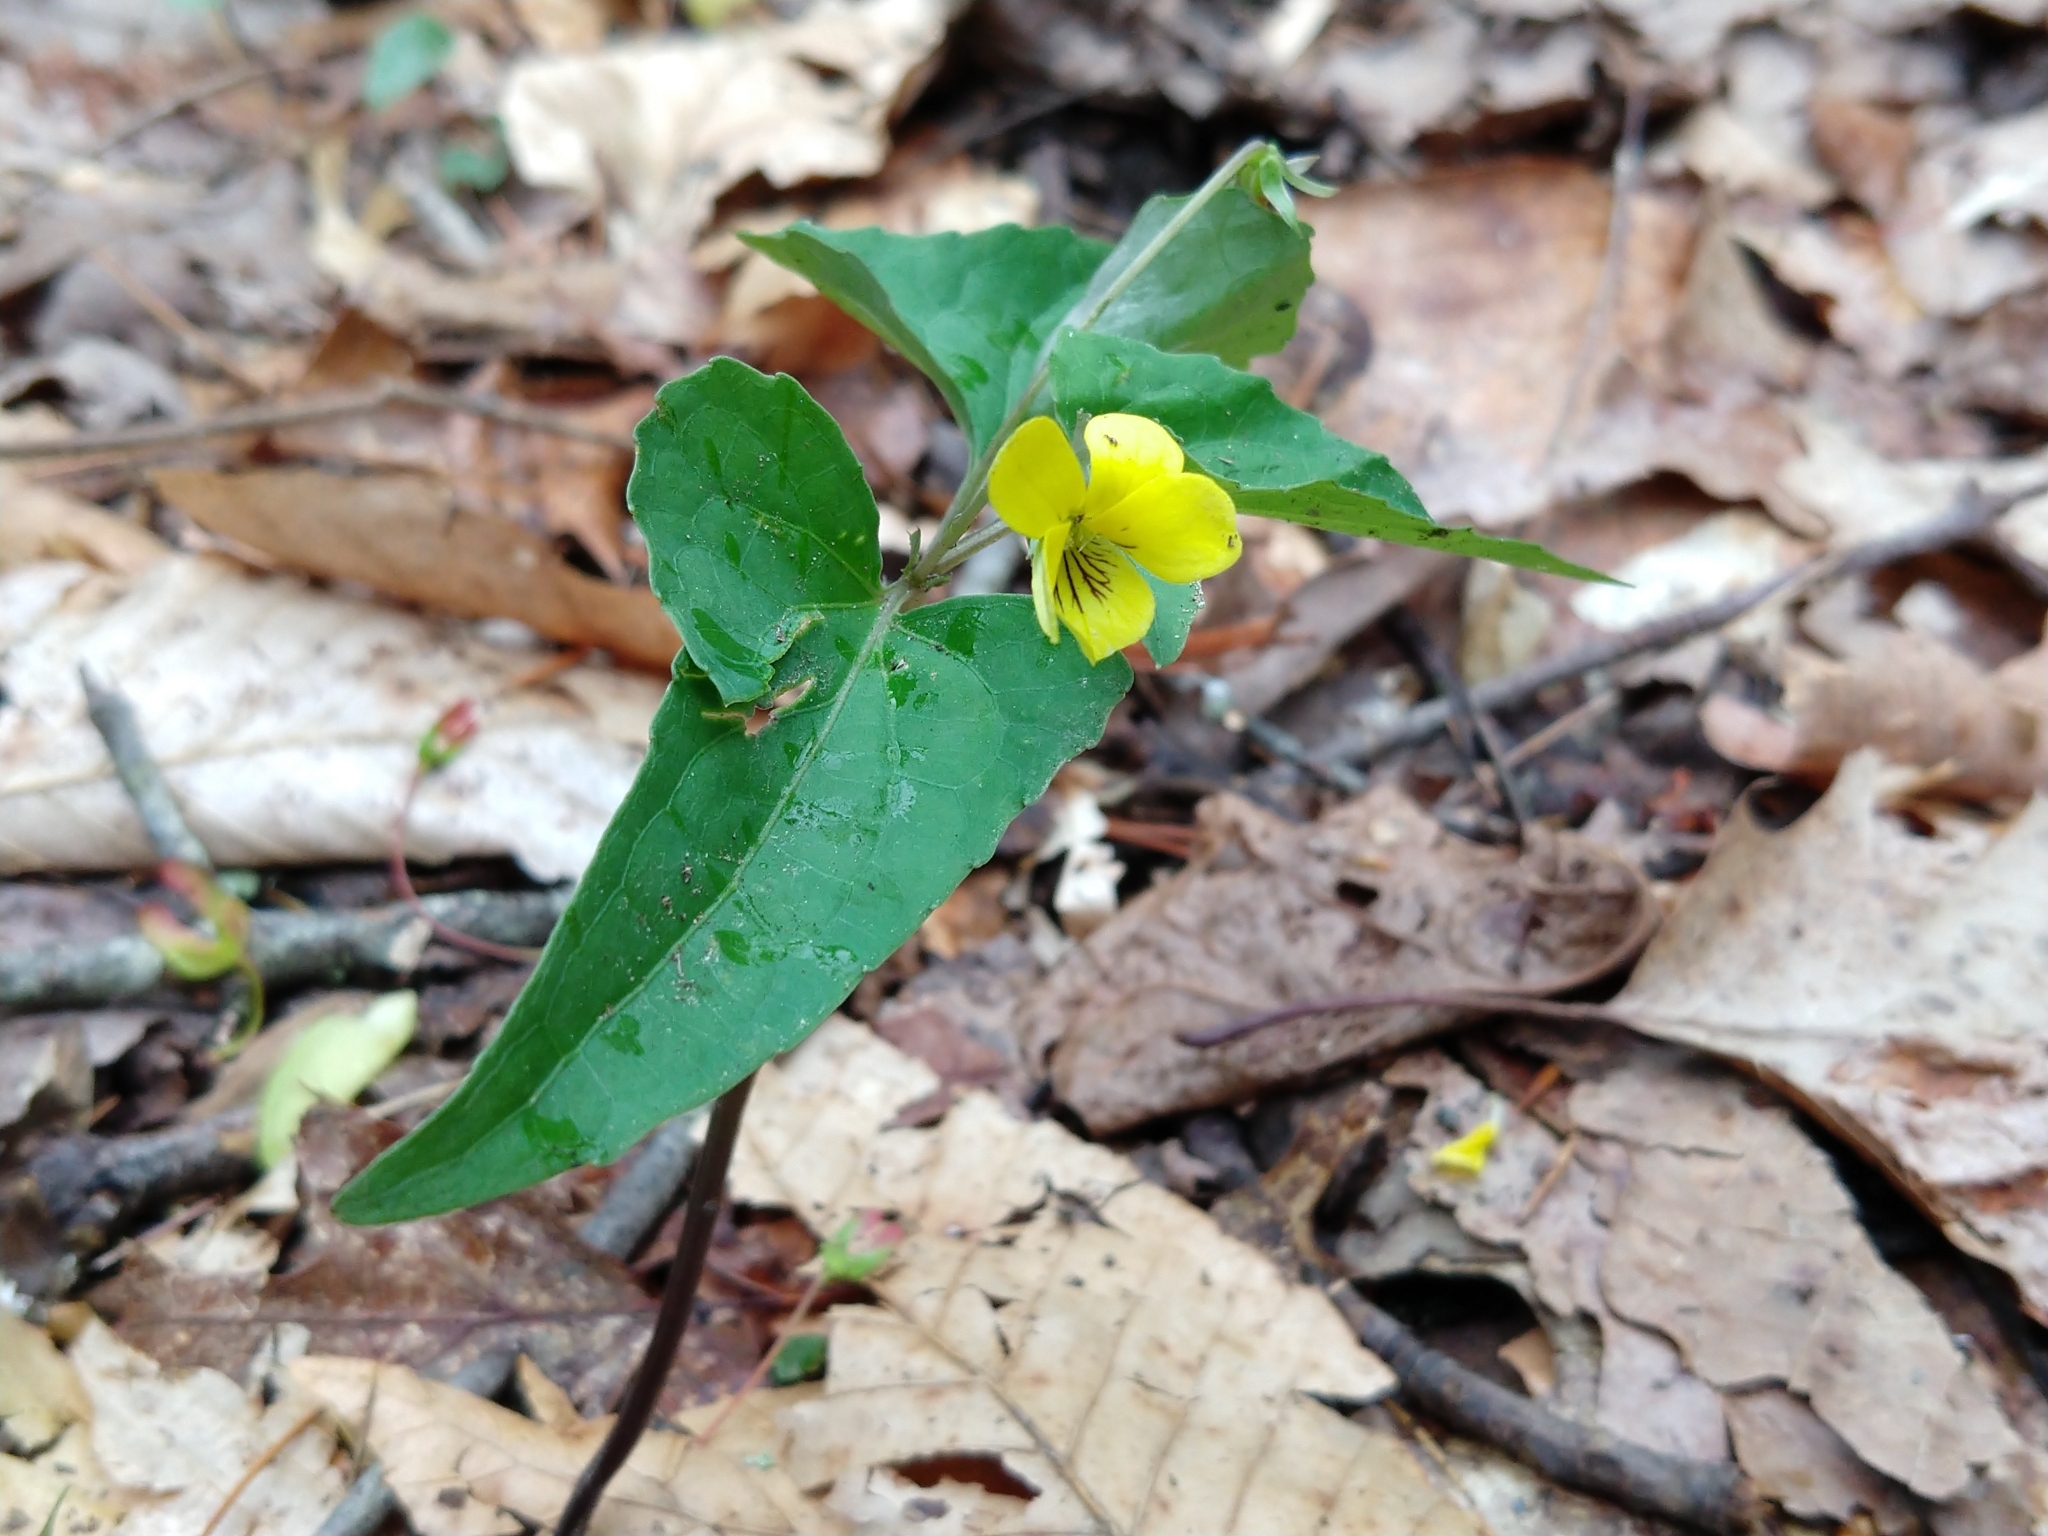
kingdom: Plantae
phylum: Tracheophyta
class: Magnoliopsida
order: Malpighiales
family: Violaceae
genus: Viola
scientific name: Viola hastata
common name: Spear-leaf violet
